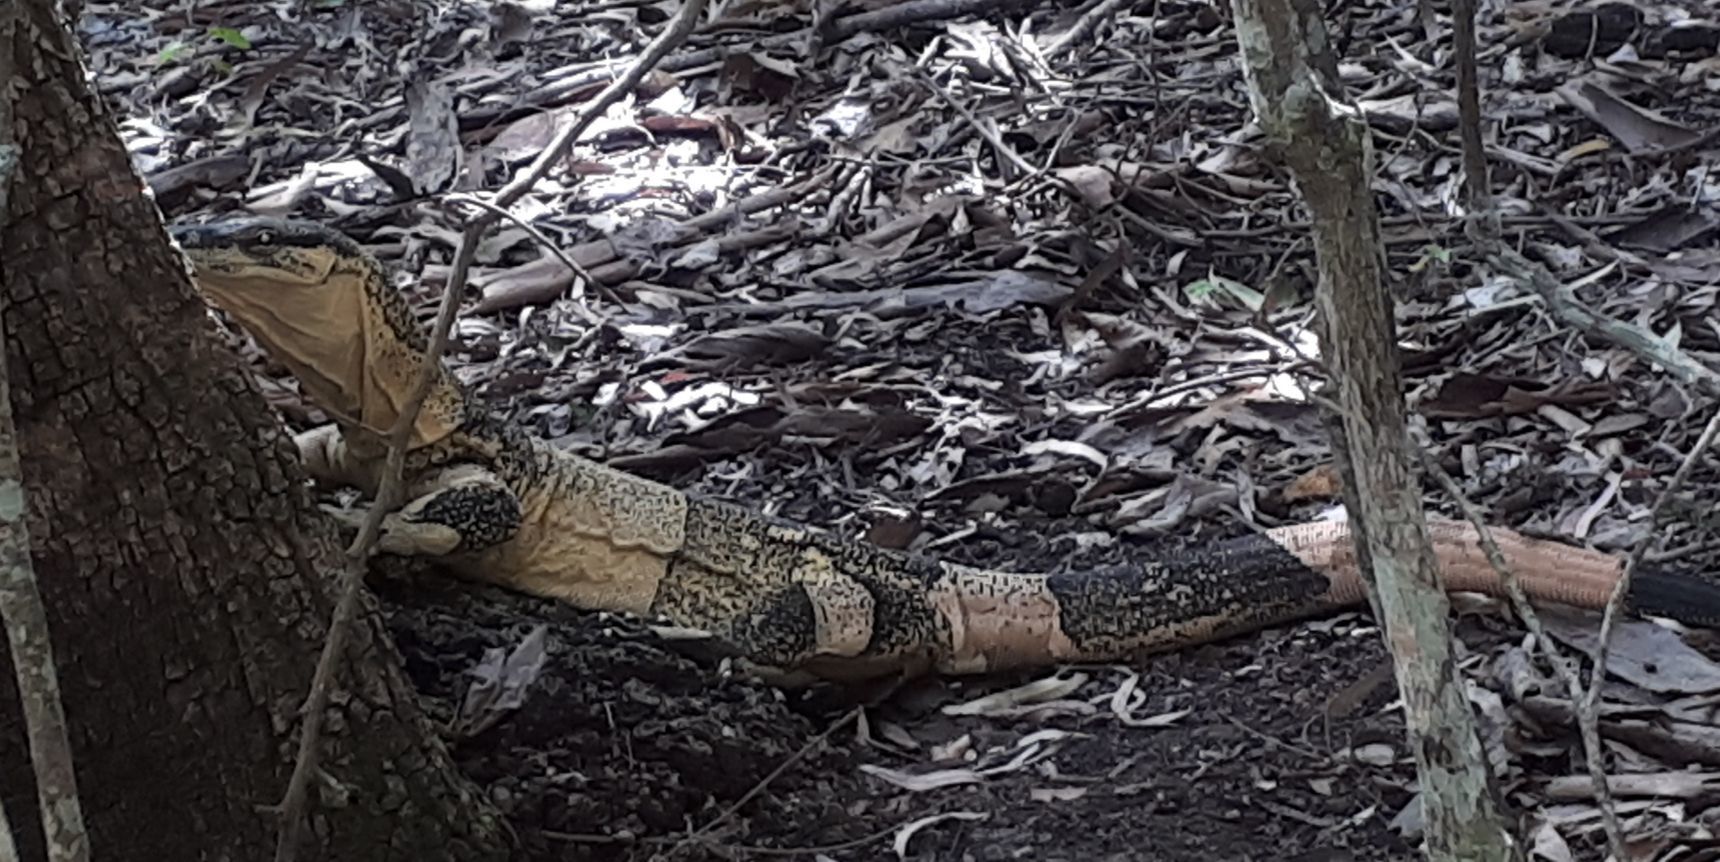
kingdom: Animalia
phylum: Chordata
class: Squamata
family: Varanidae
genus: Varanus
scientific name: Varanus varius
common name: Lace monitor
